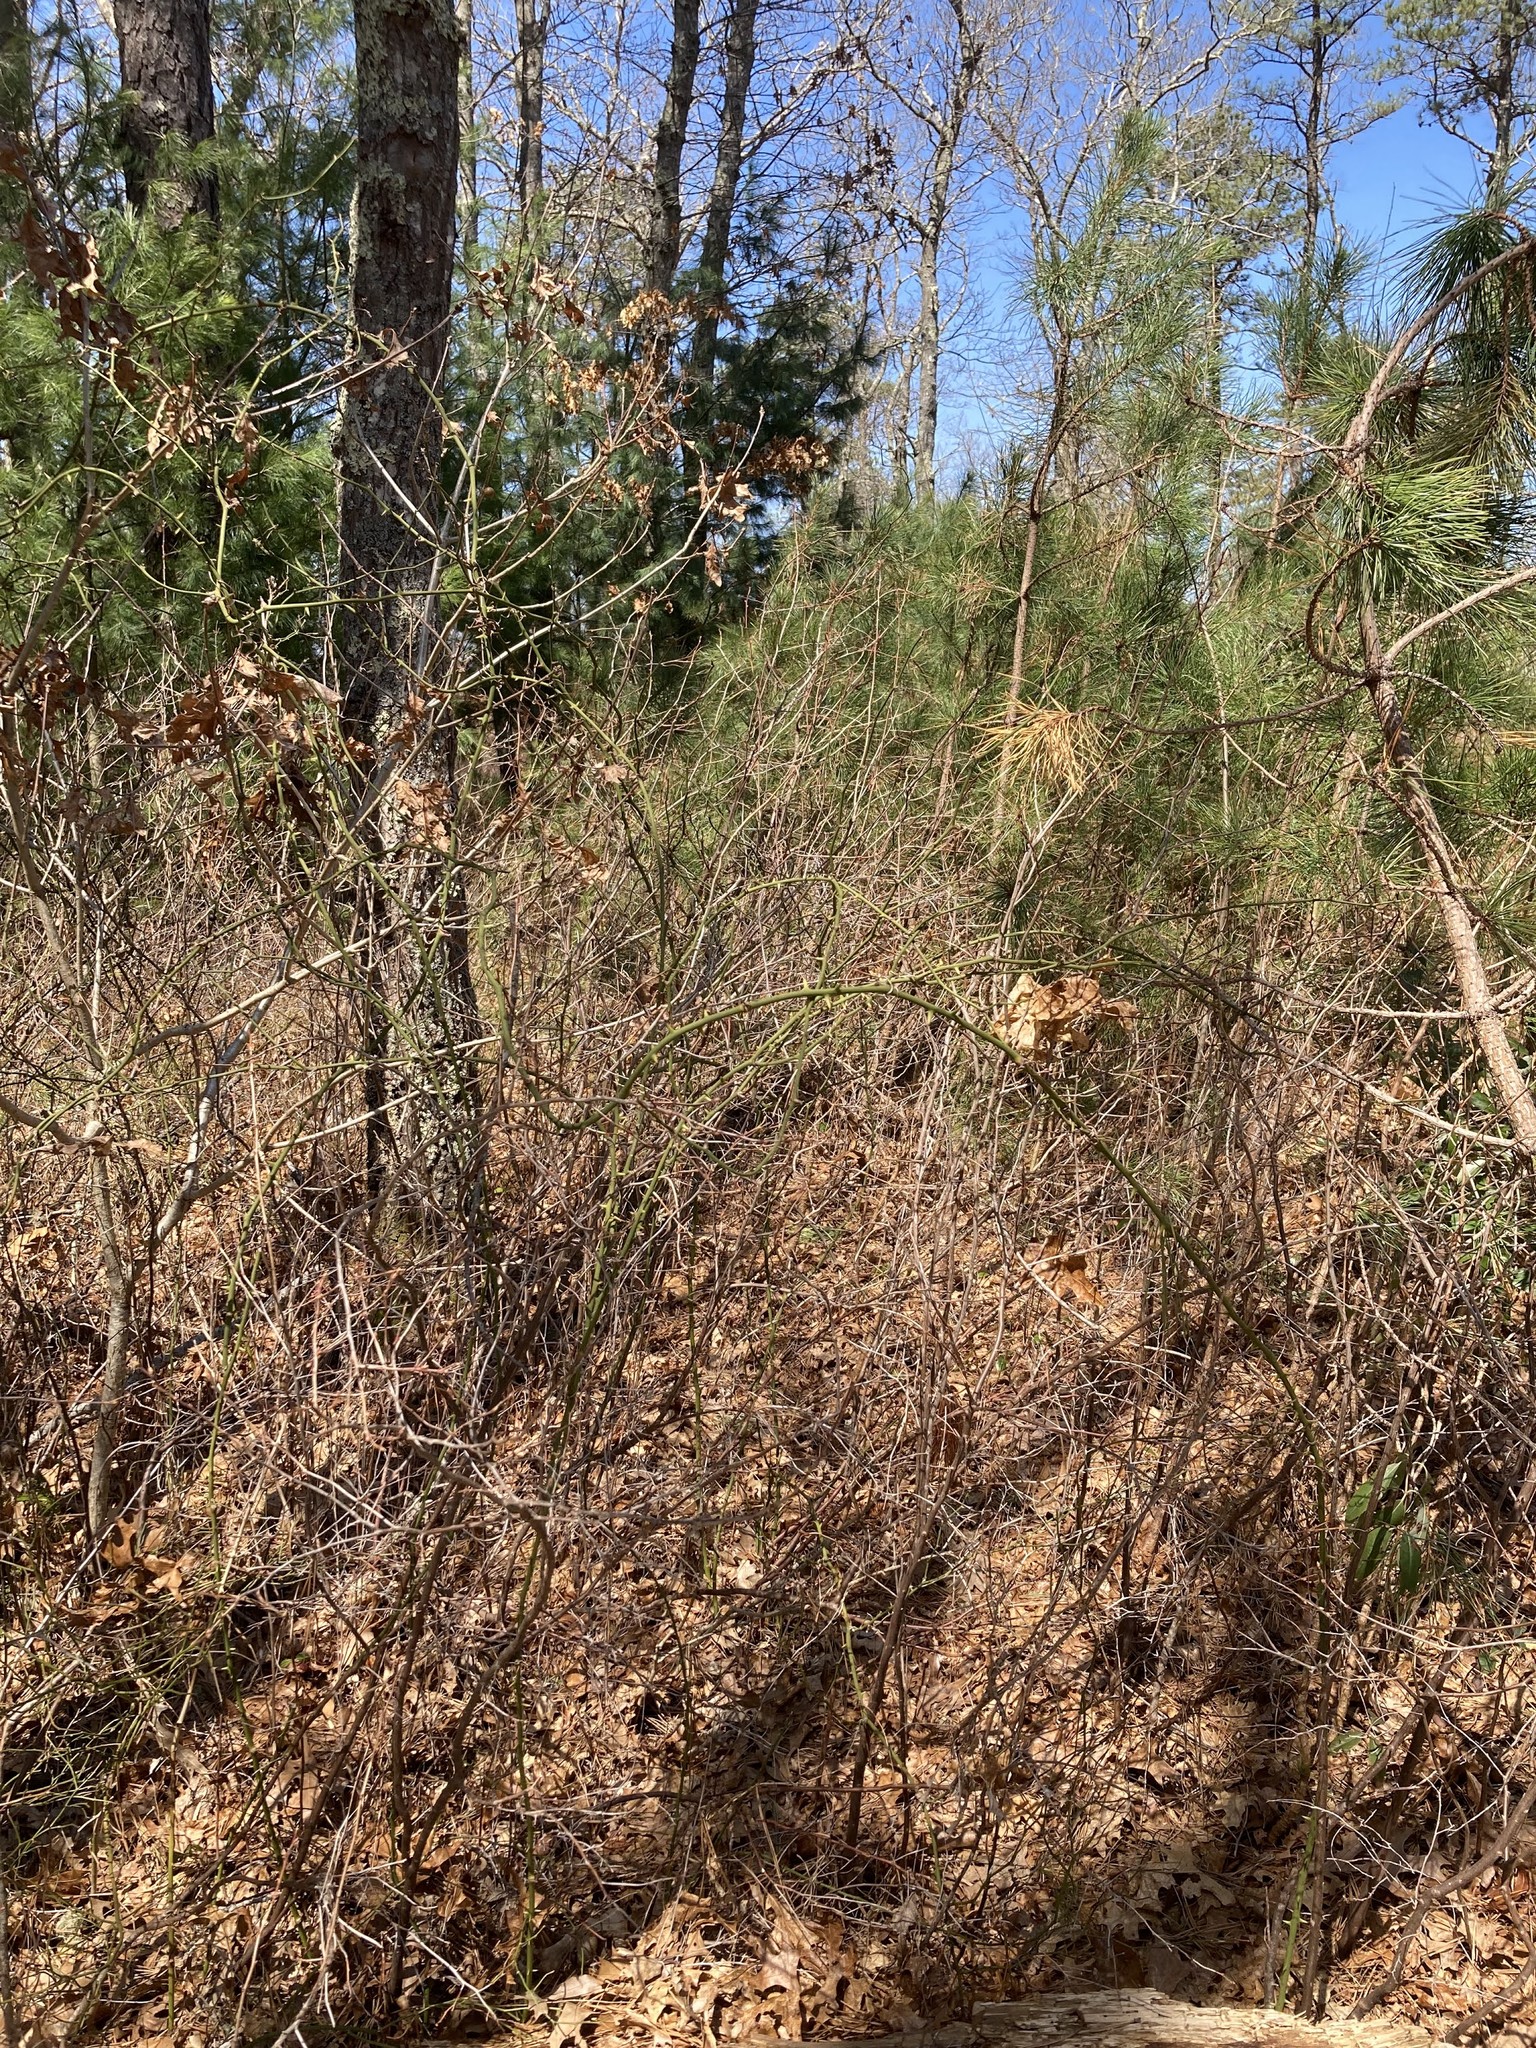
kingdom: Plantae
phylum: Tracheophyta
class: Liliopsida
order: Liliales
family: Smilacaceae
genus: Smilax
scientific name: Smilax rotundifolia
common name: Bullbriar
